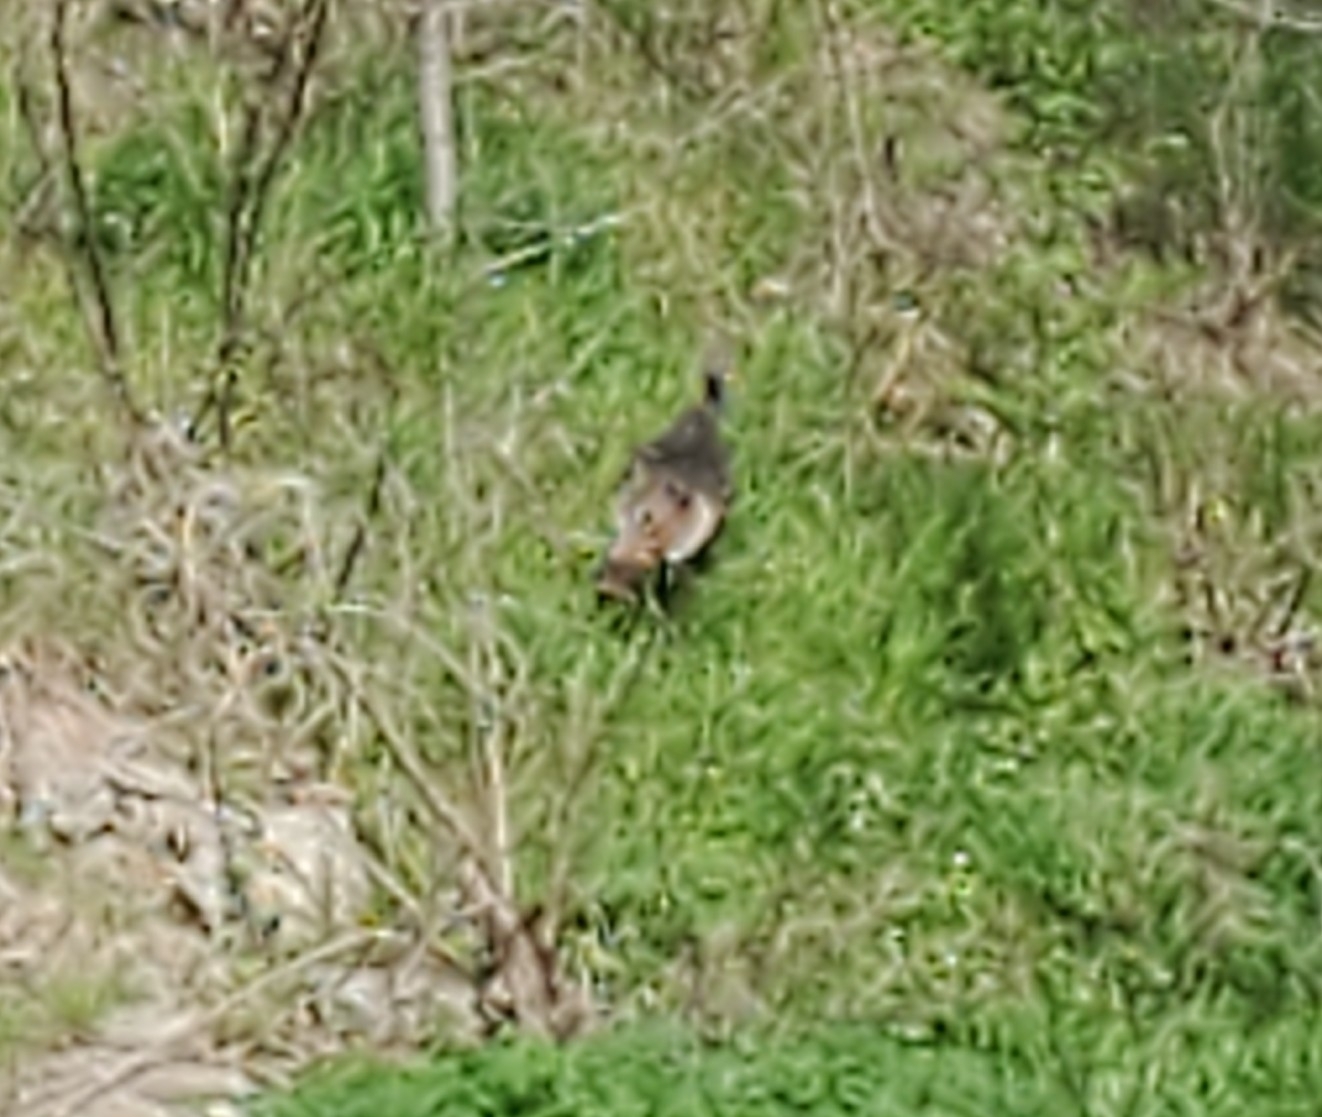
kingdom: Animalia
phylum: Chordata
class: Aves
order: Galliformes
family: Phasianidae
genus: Meleagris
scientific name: Meleagris gallopavo
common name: Wild turkey
